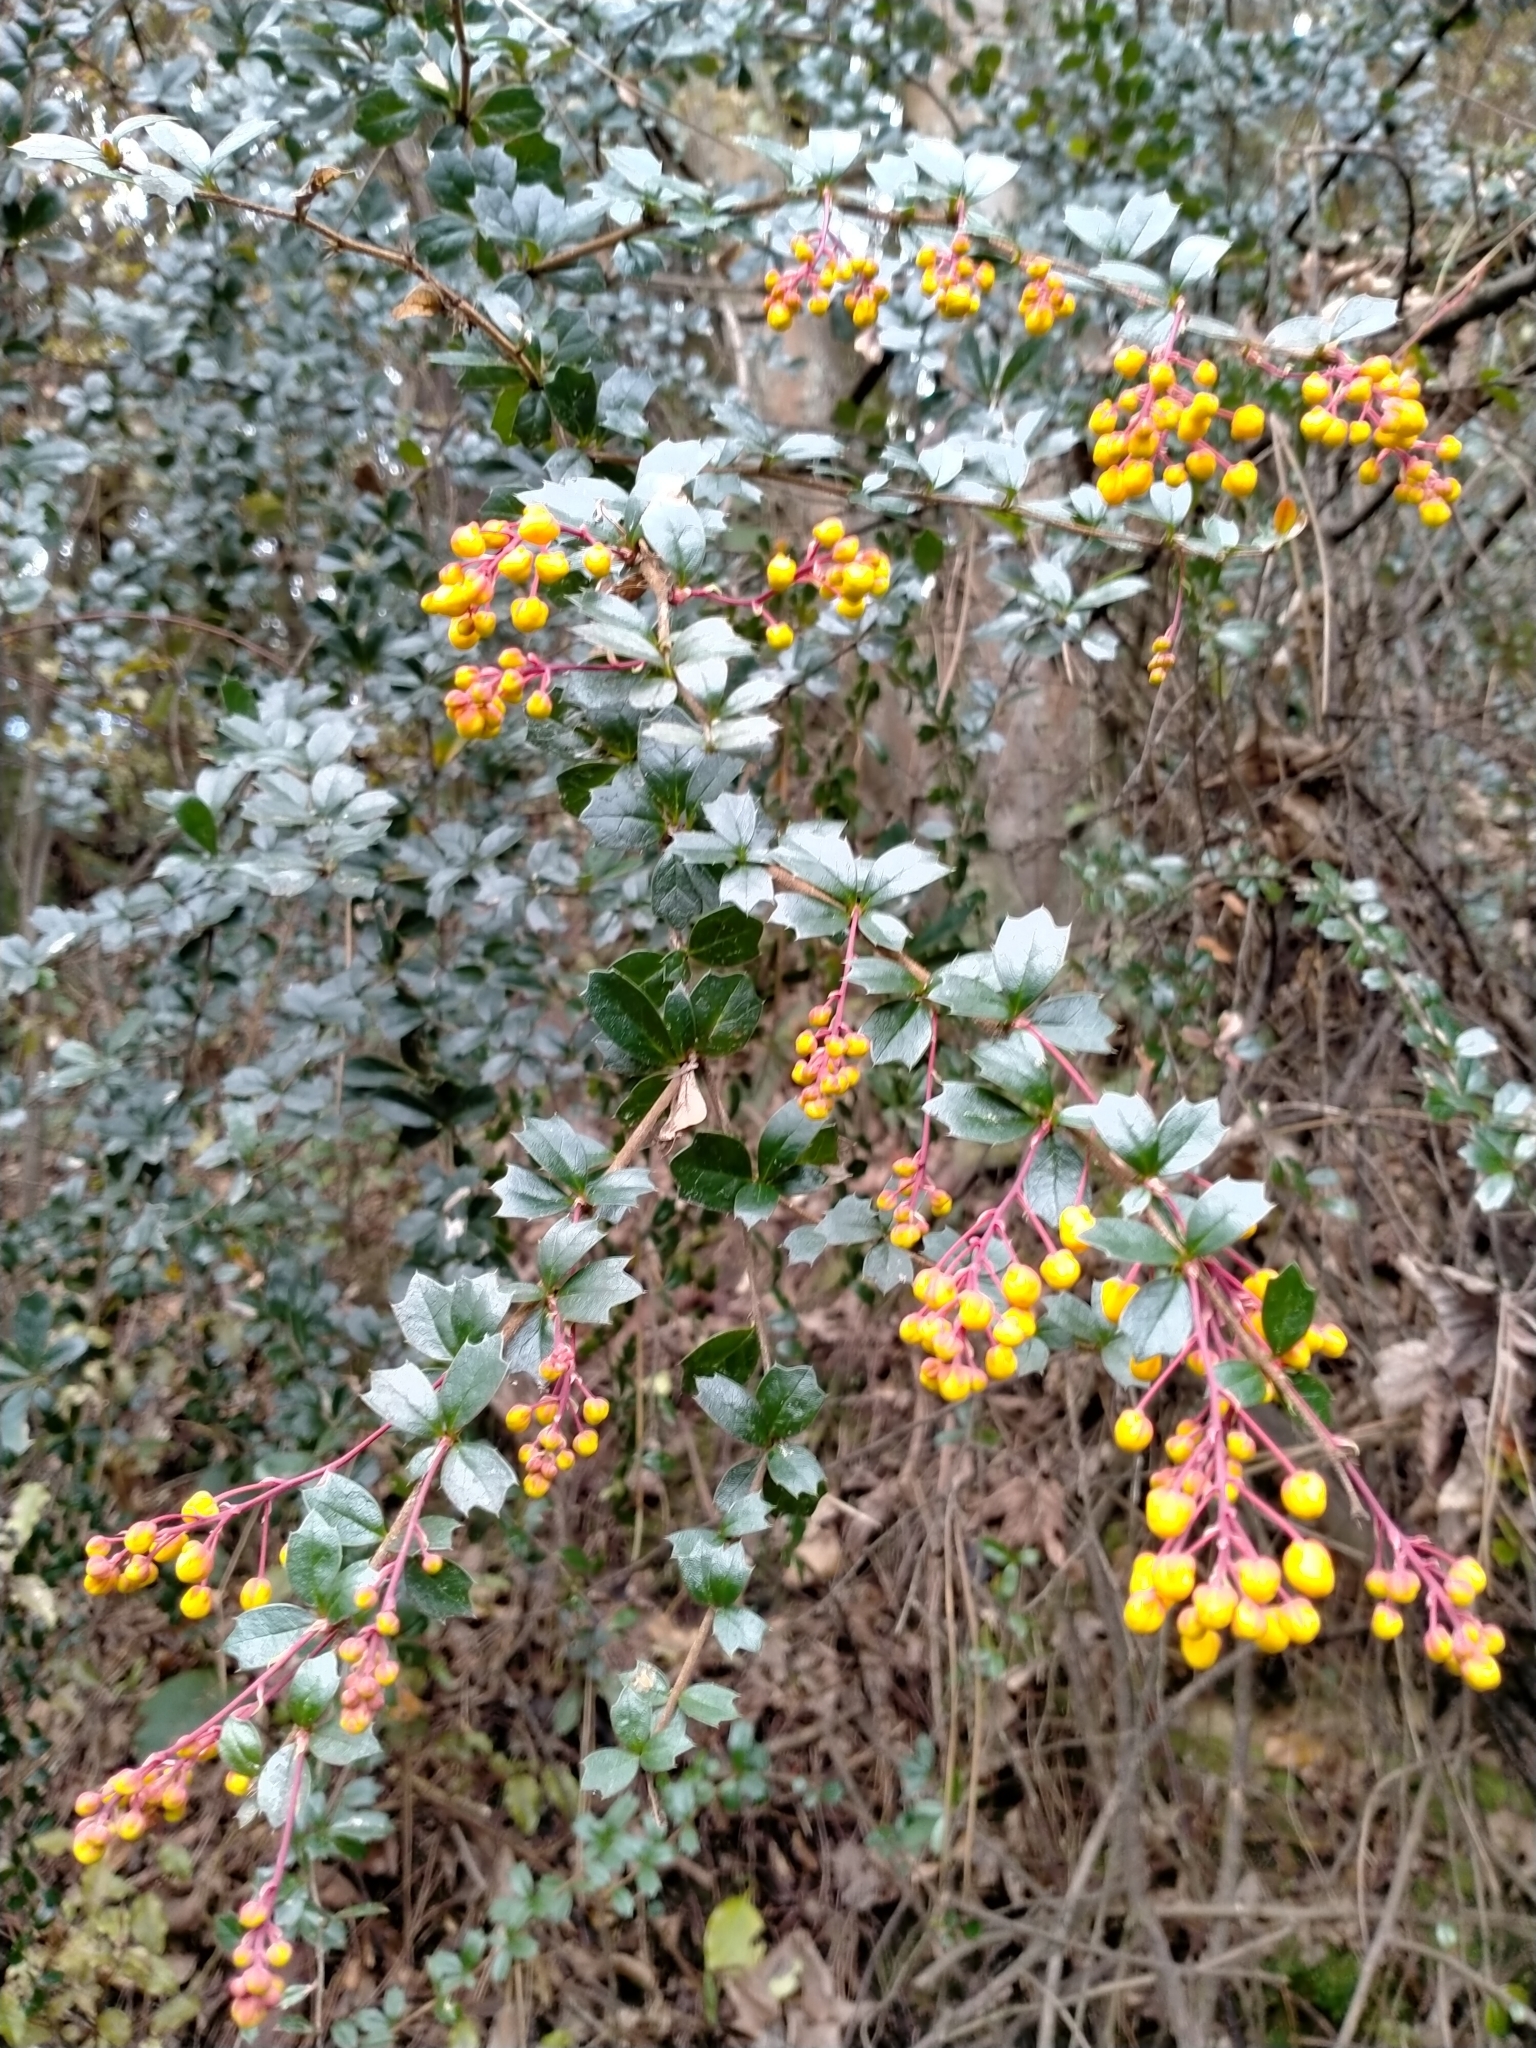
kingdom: Plantae
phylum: Tracheophyta
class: Magnoliopsida
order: Ranunculales
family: Berberidaceae
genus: Berberis
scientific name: Berberis darwinii
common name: Darwin's barberry
